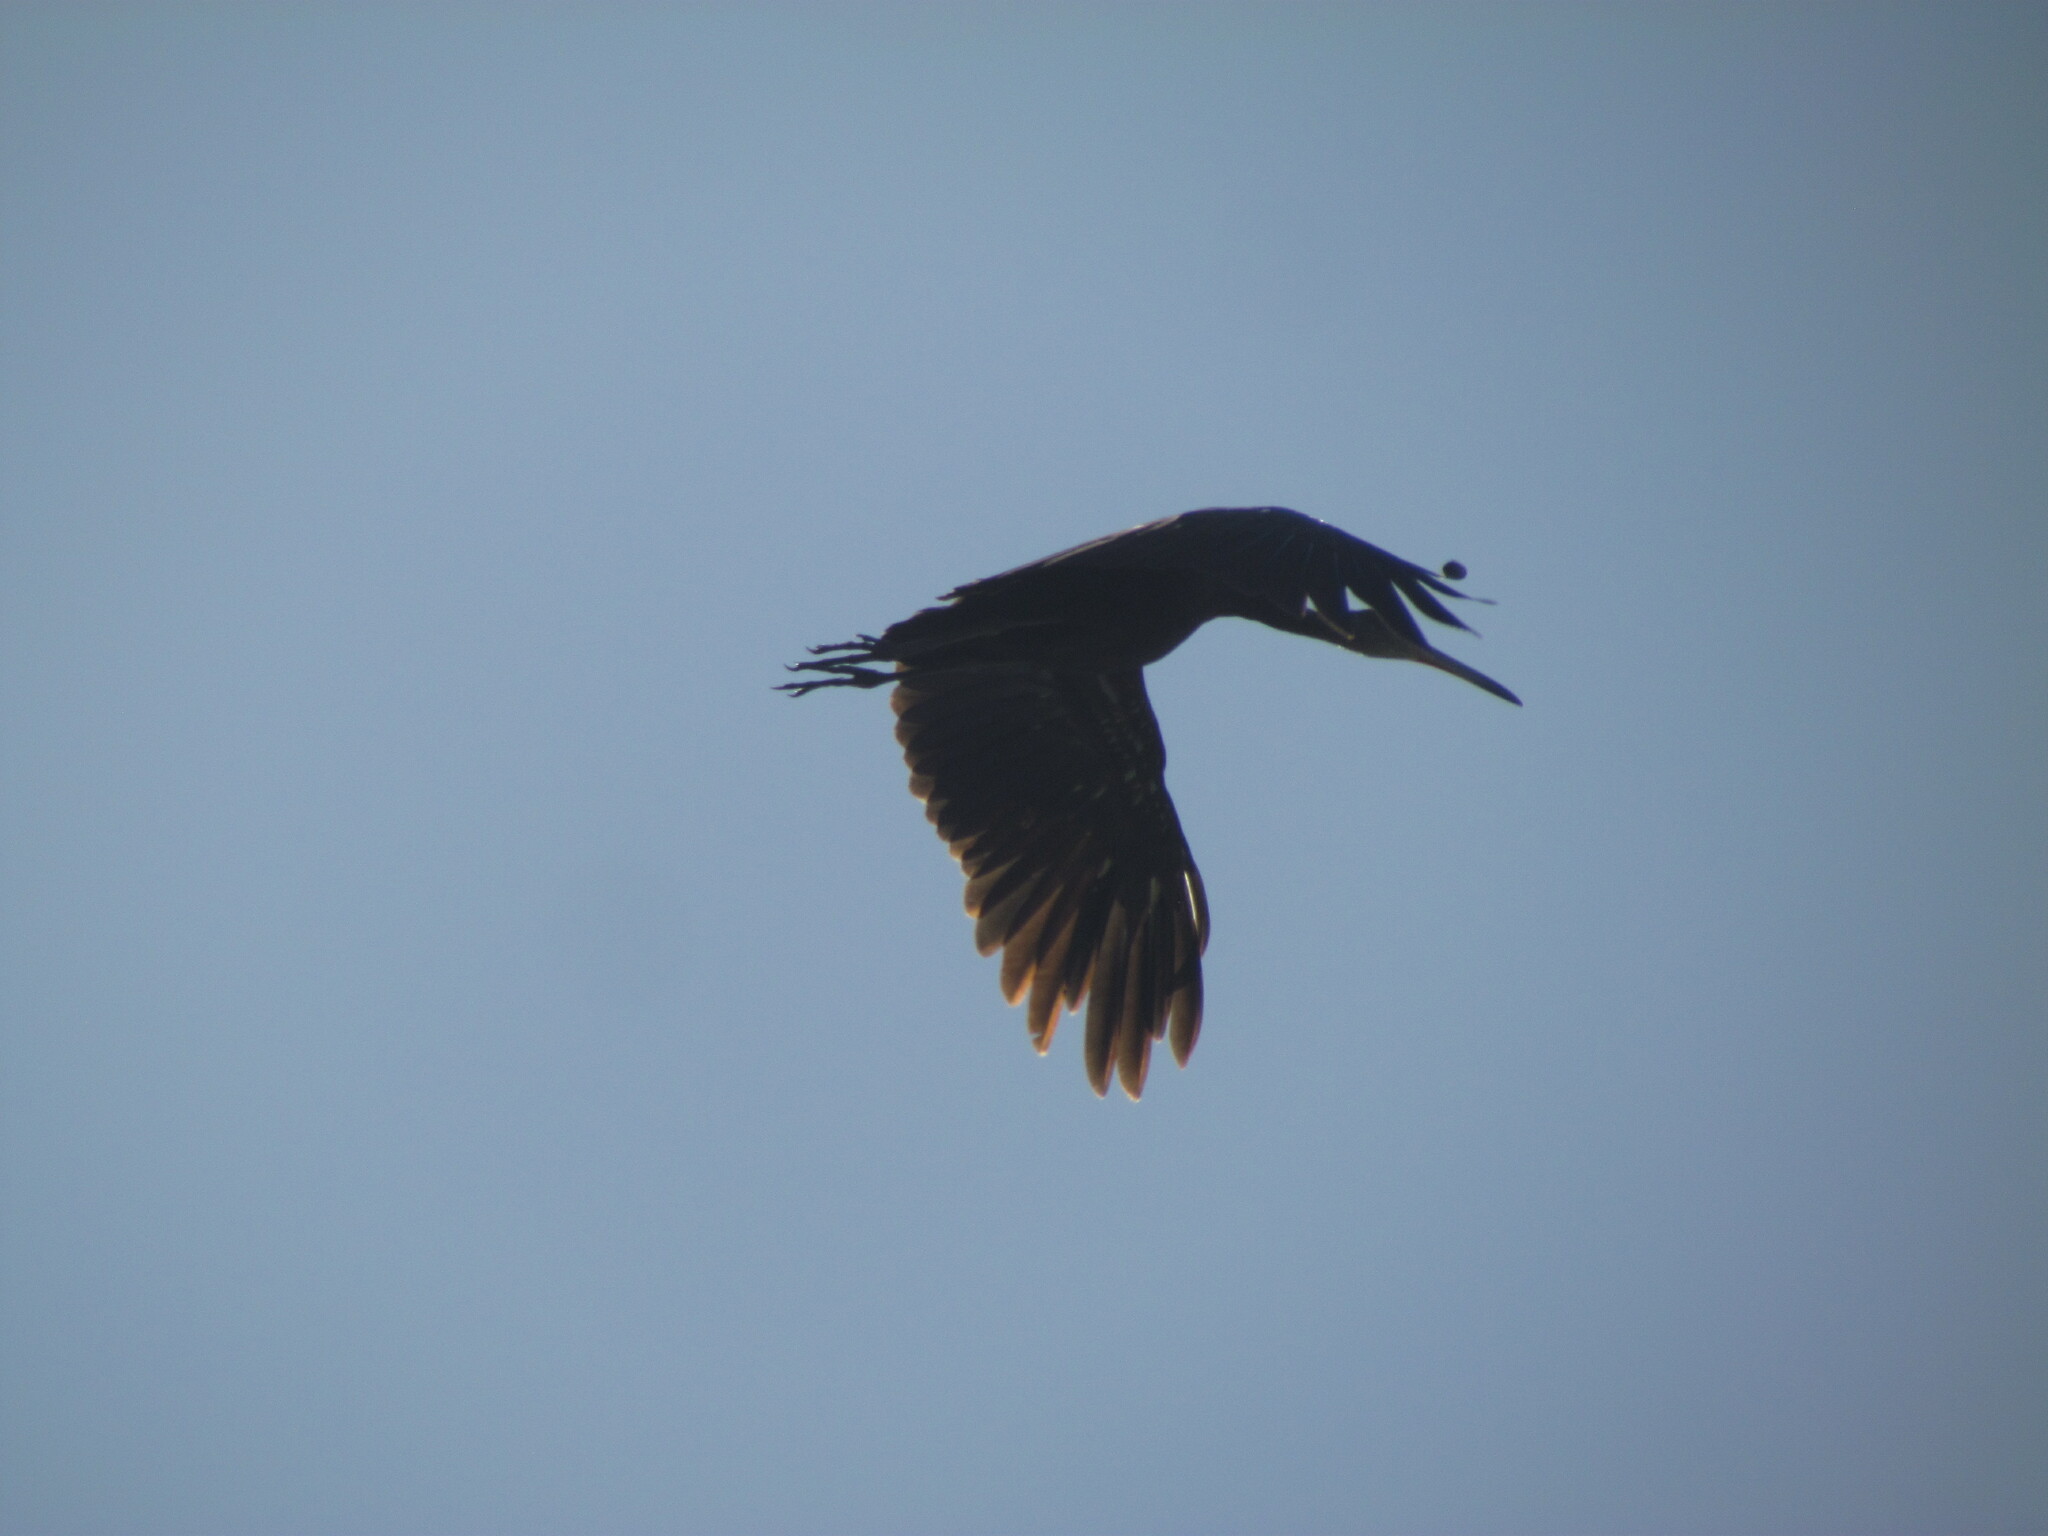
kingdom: Animalia
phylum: Chordata
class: Aves
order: Gruiformes
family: Aramidae
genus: Aramus
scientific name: Aramus guarauna
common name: Limpkin
